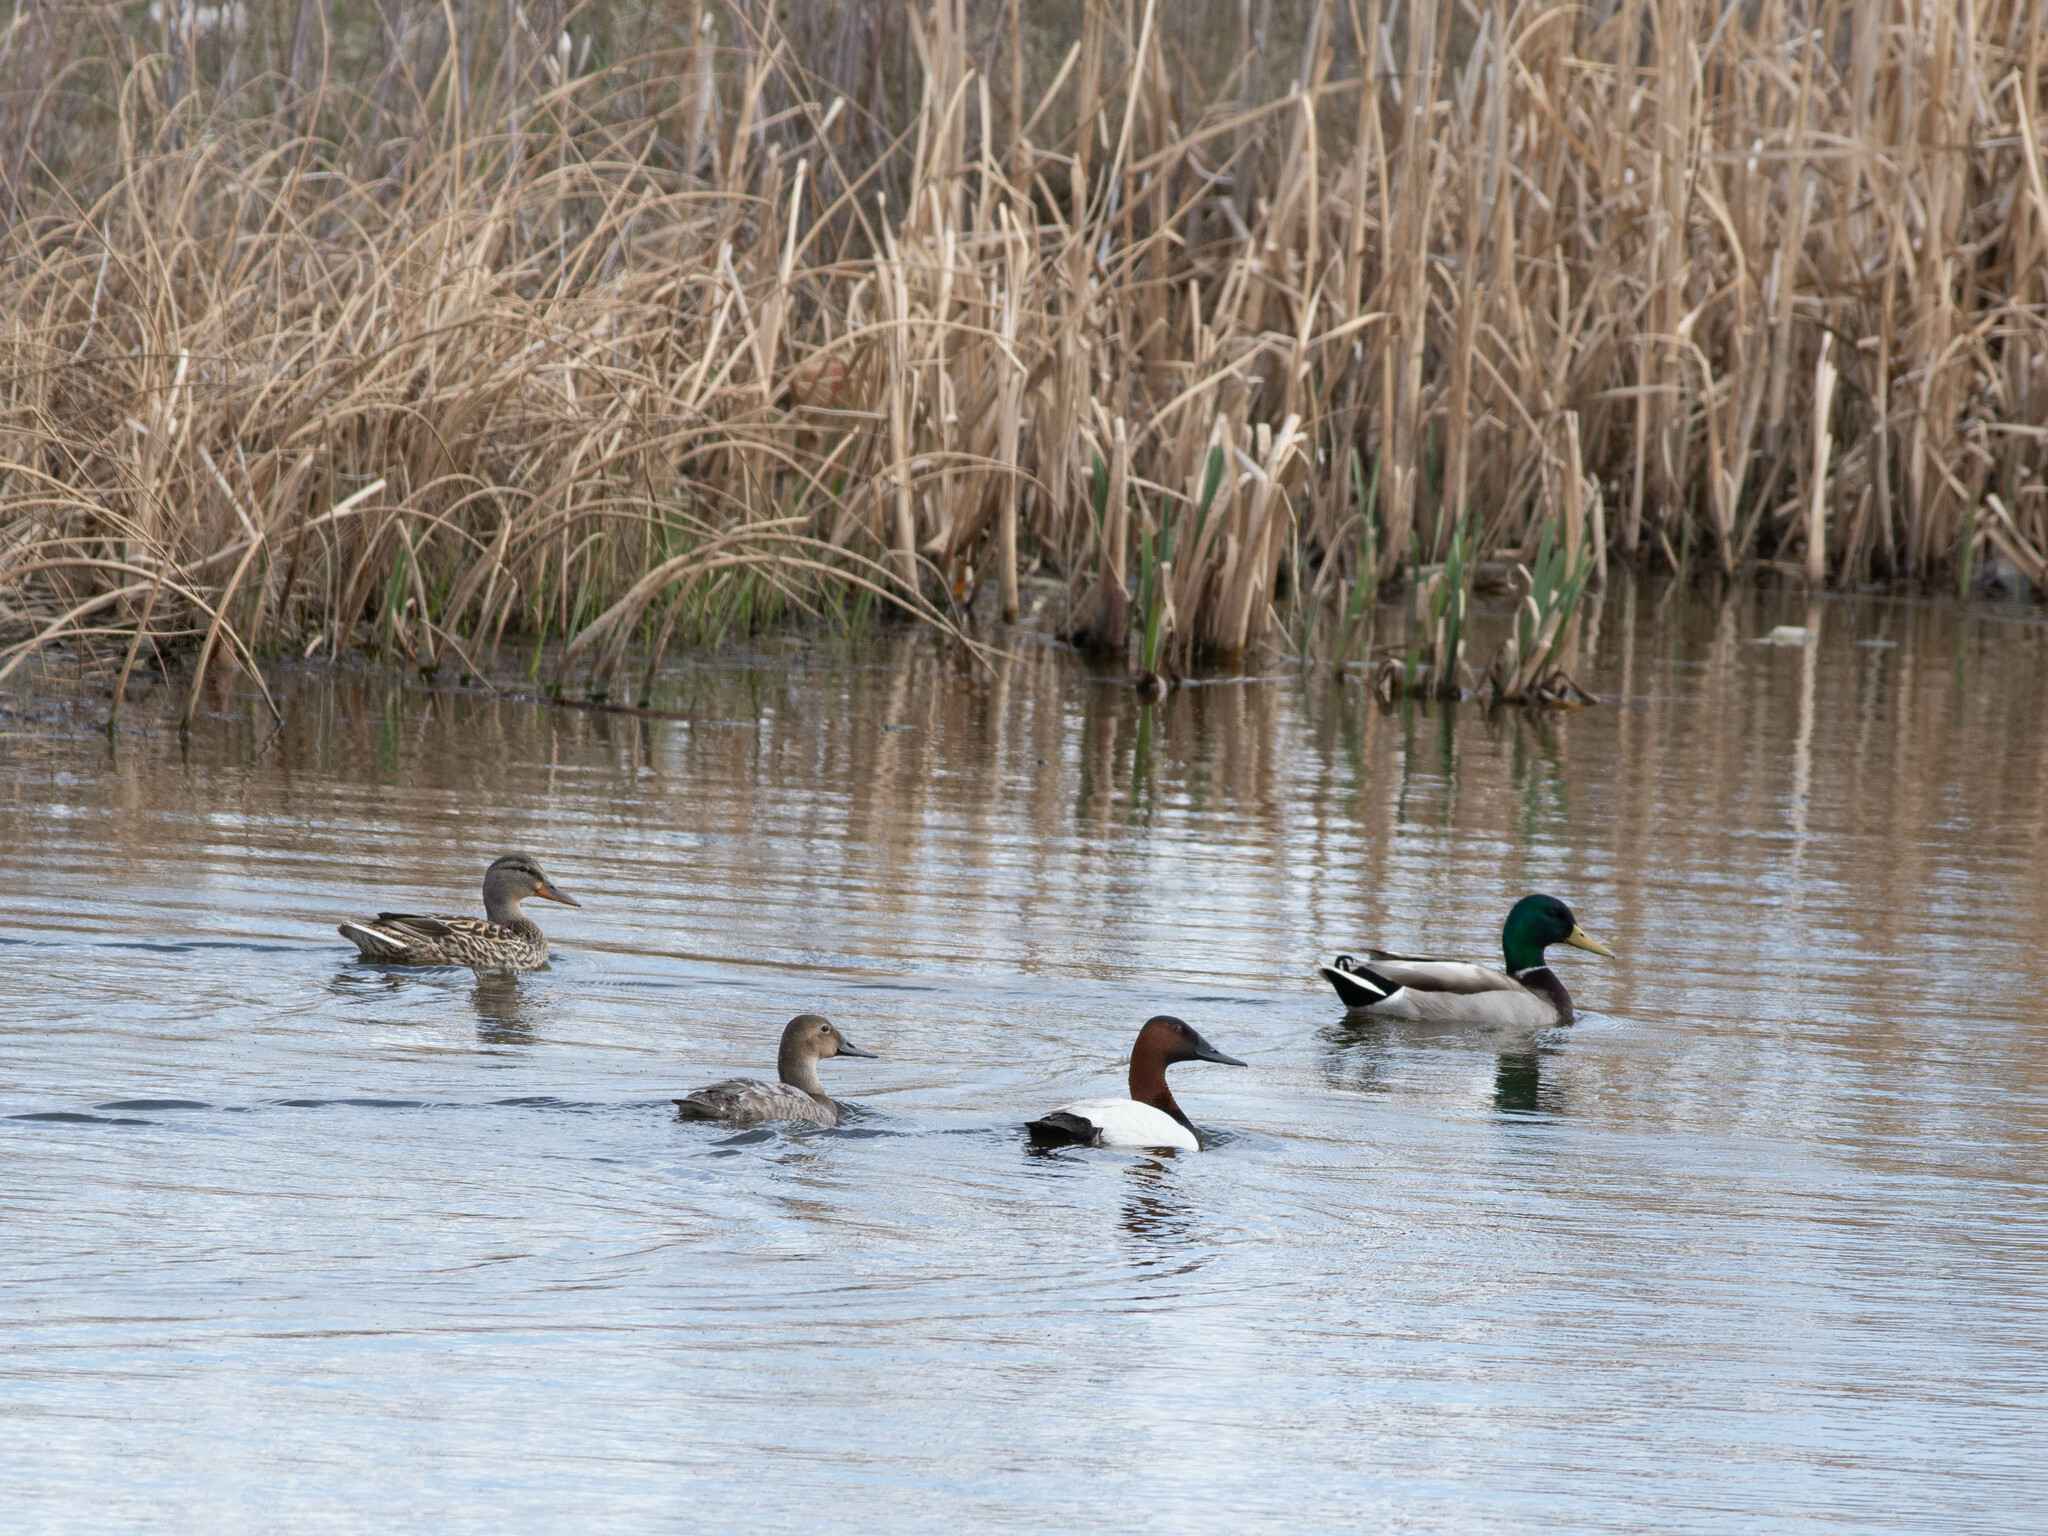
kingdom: Animalia
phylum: Chordata
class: Aves
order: Anseriformes
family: Anatidae
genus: Aythya
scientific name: Aythya valisineria
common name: Canvasback
